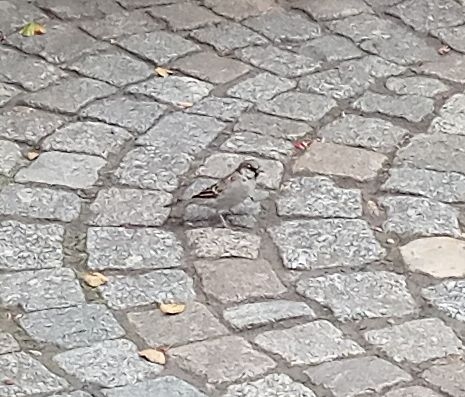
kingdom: Animalia
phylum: Chordata
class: Aves
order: Passeriformes
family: Passeridae
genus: Passer
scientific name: Passer domesticus
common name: House sparrow
